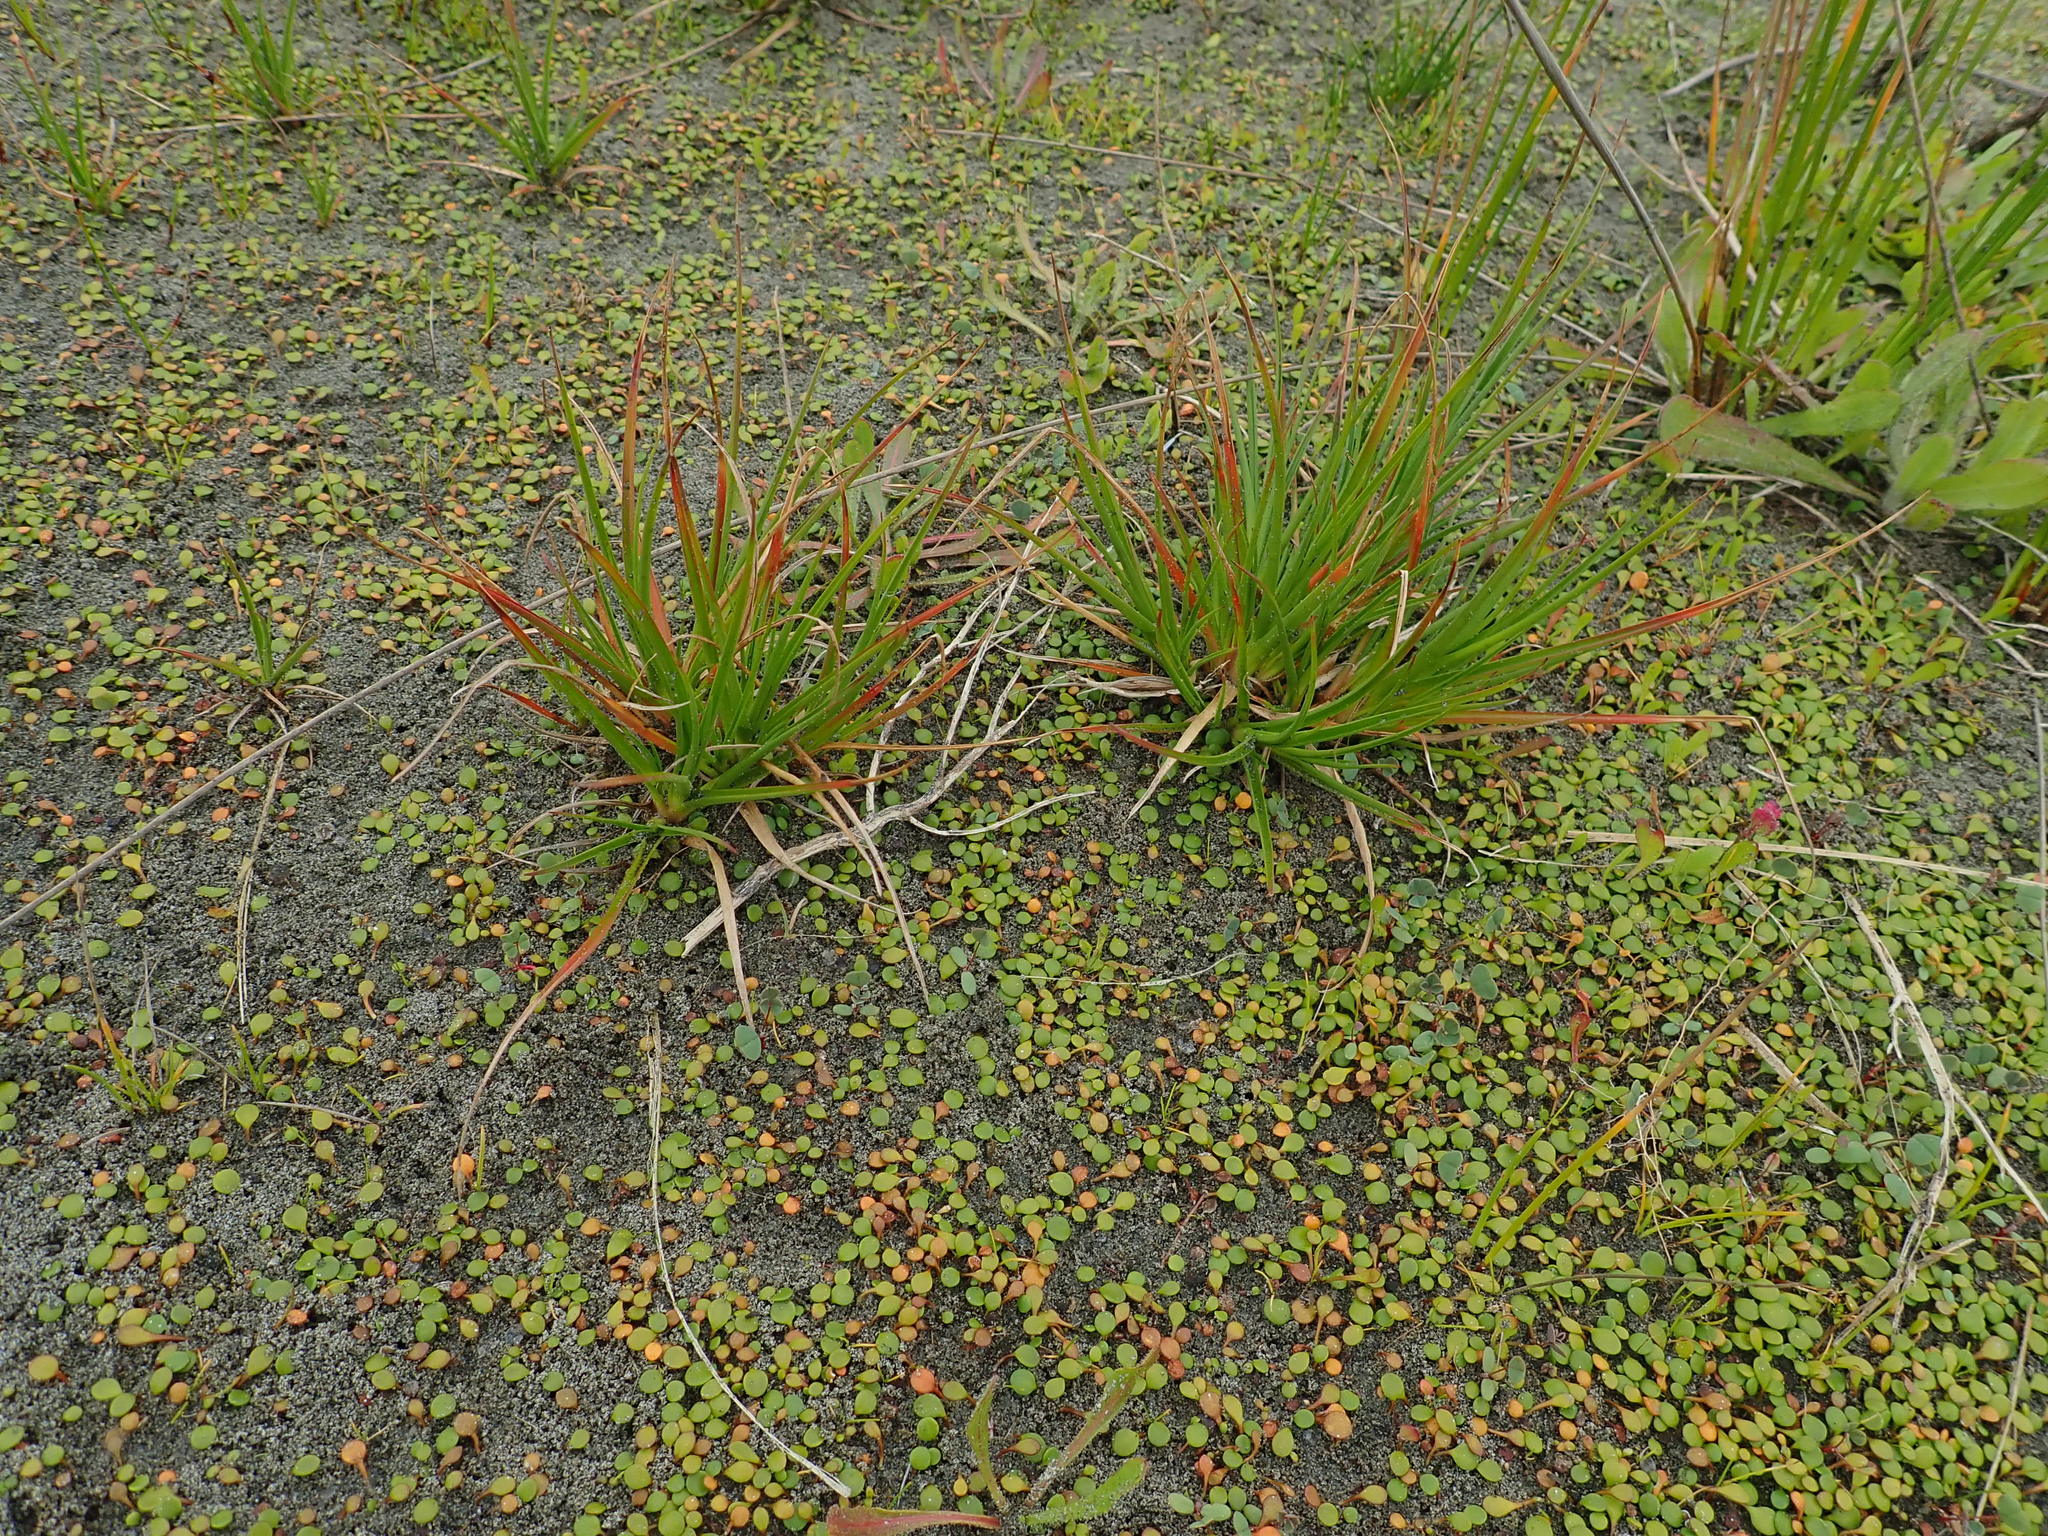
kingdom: Plantae
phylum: Tracheophyta
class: Liliopsida
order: Poales
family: Juncaceae
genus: Juncus
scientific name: Juncus caespiticius
